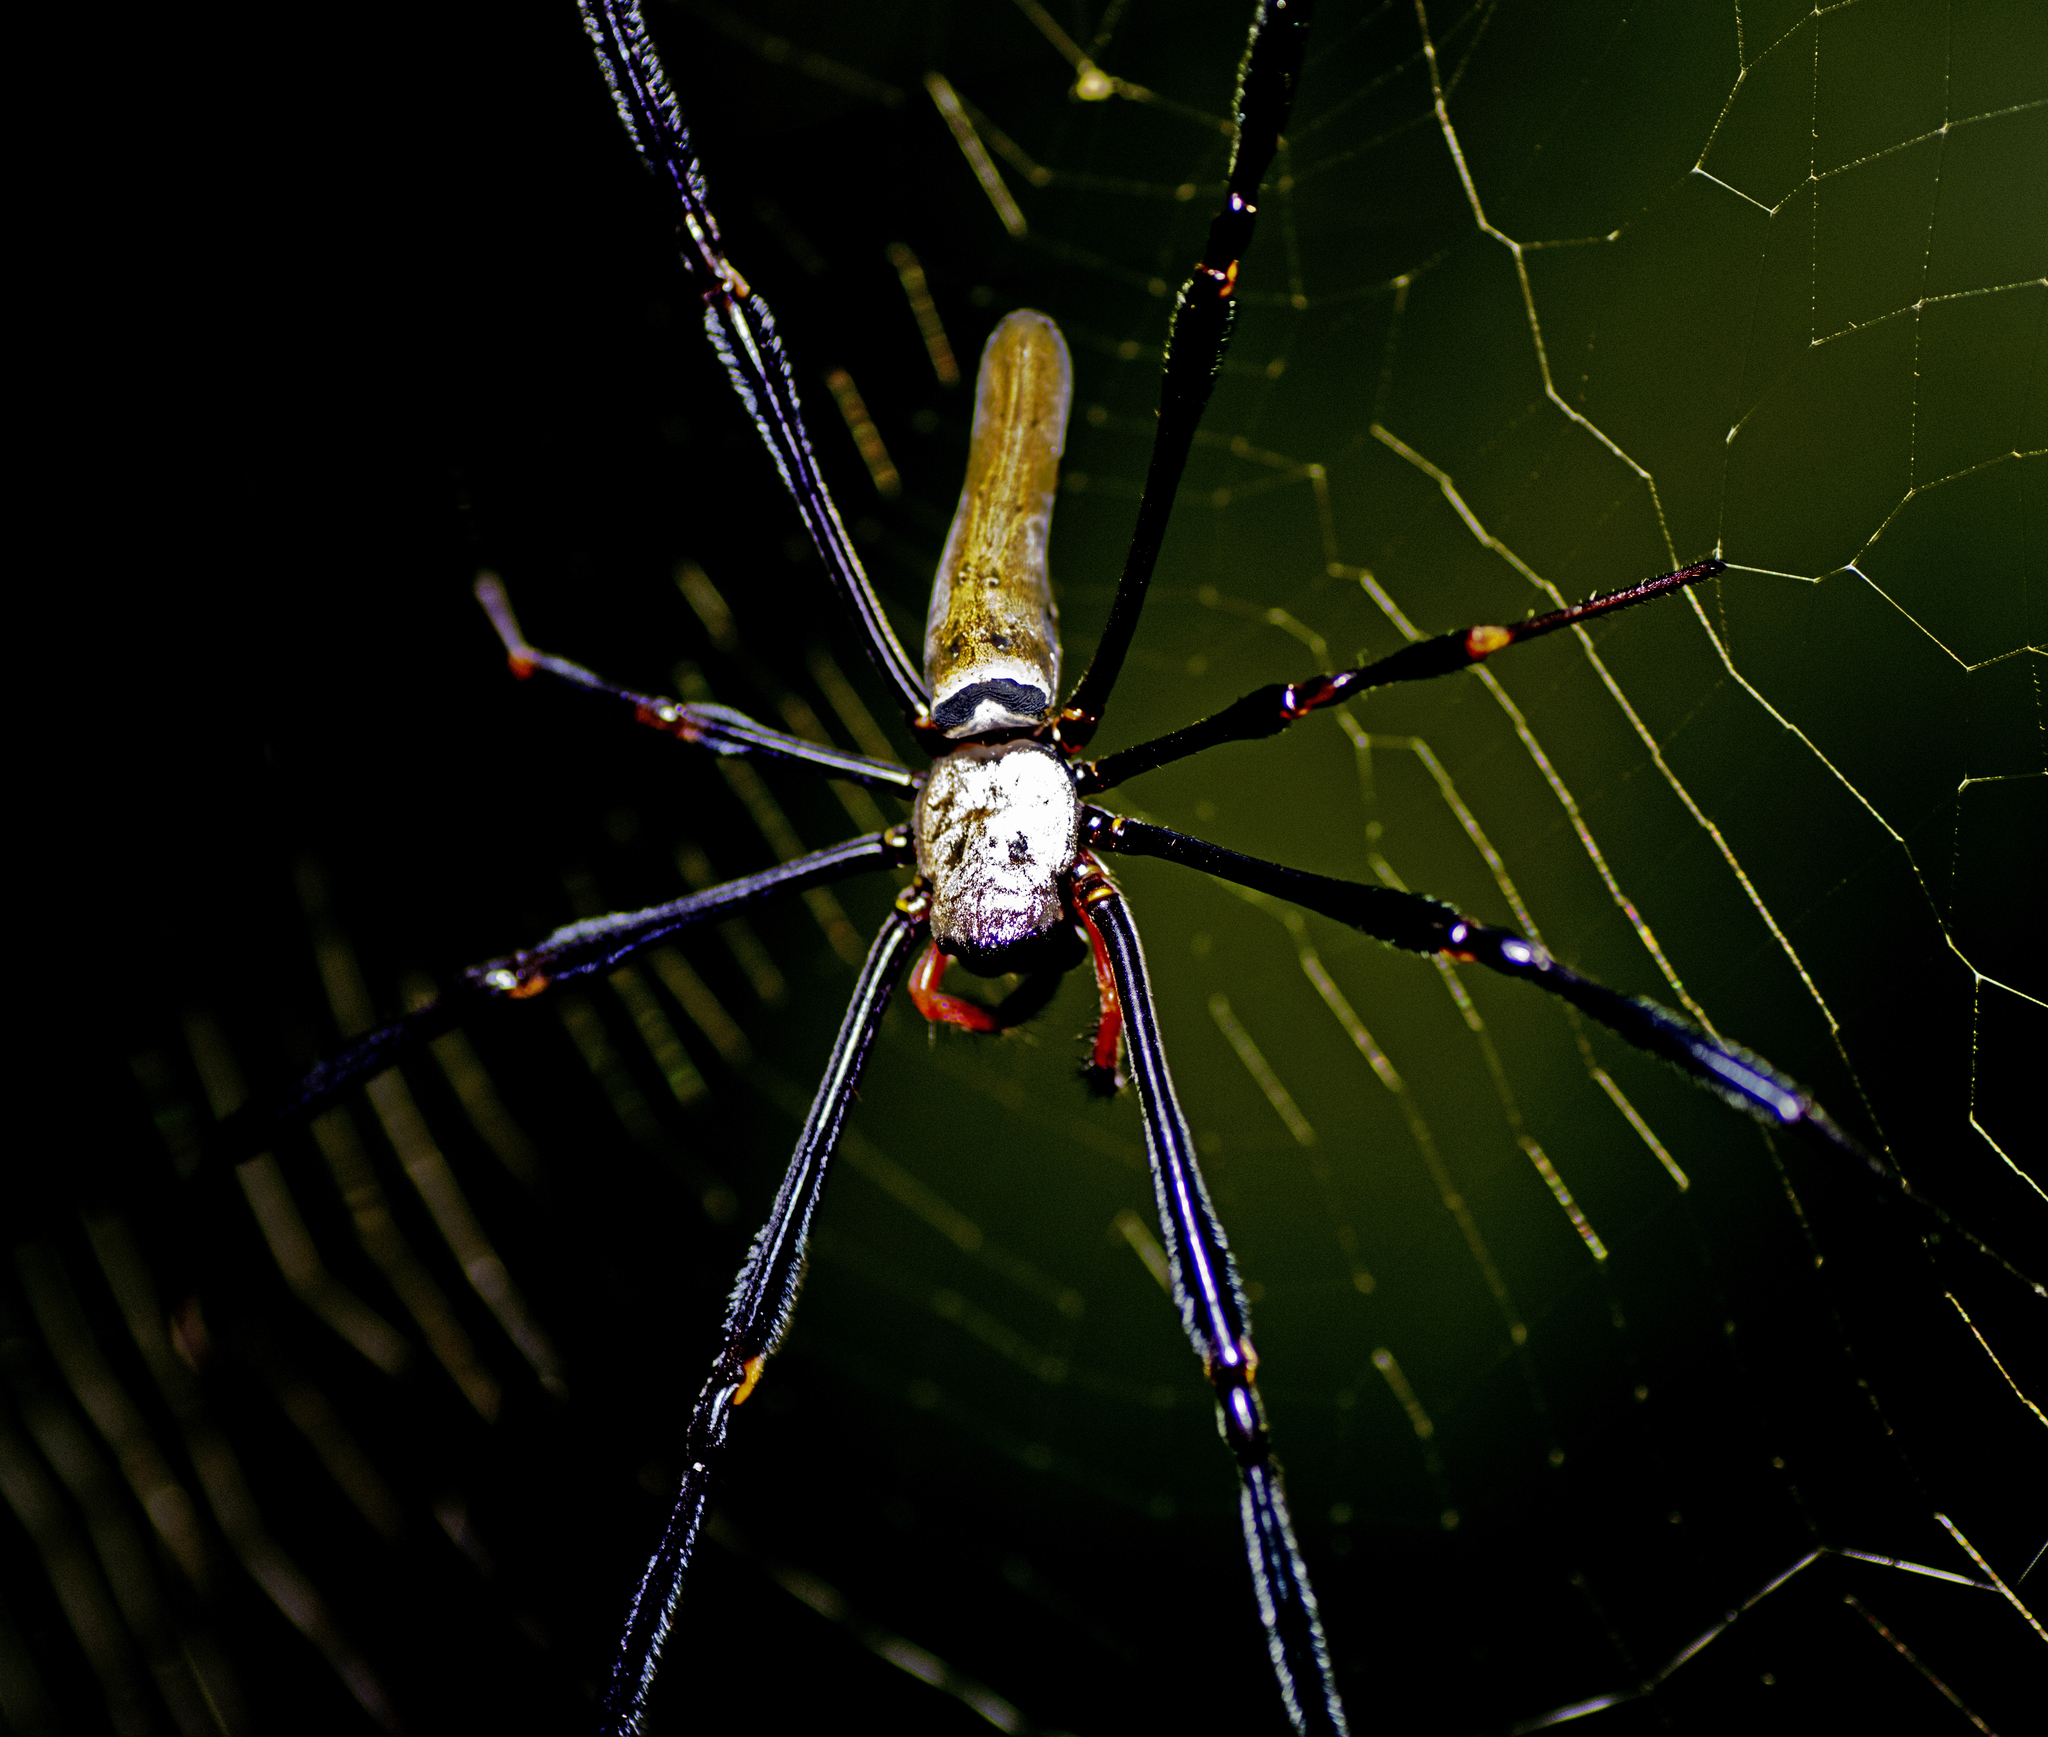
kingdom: Animalia
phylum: Arthropoda
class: Arachnida
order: Araneae
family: Araneidae
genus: Nephila
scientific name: Nephila pilipes
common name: Giant golden orb weaver
